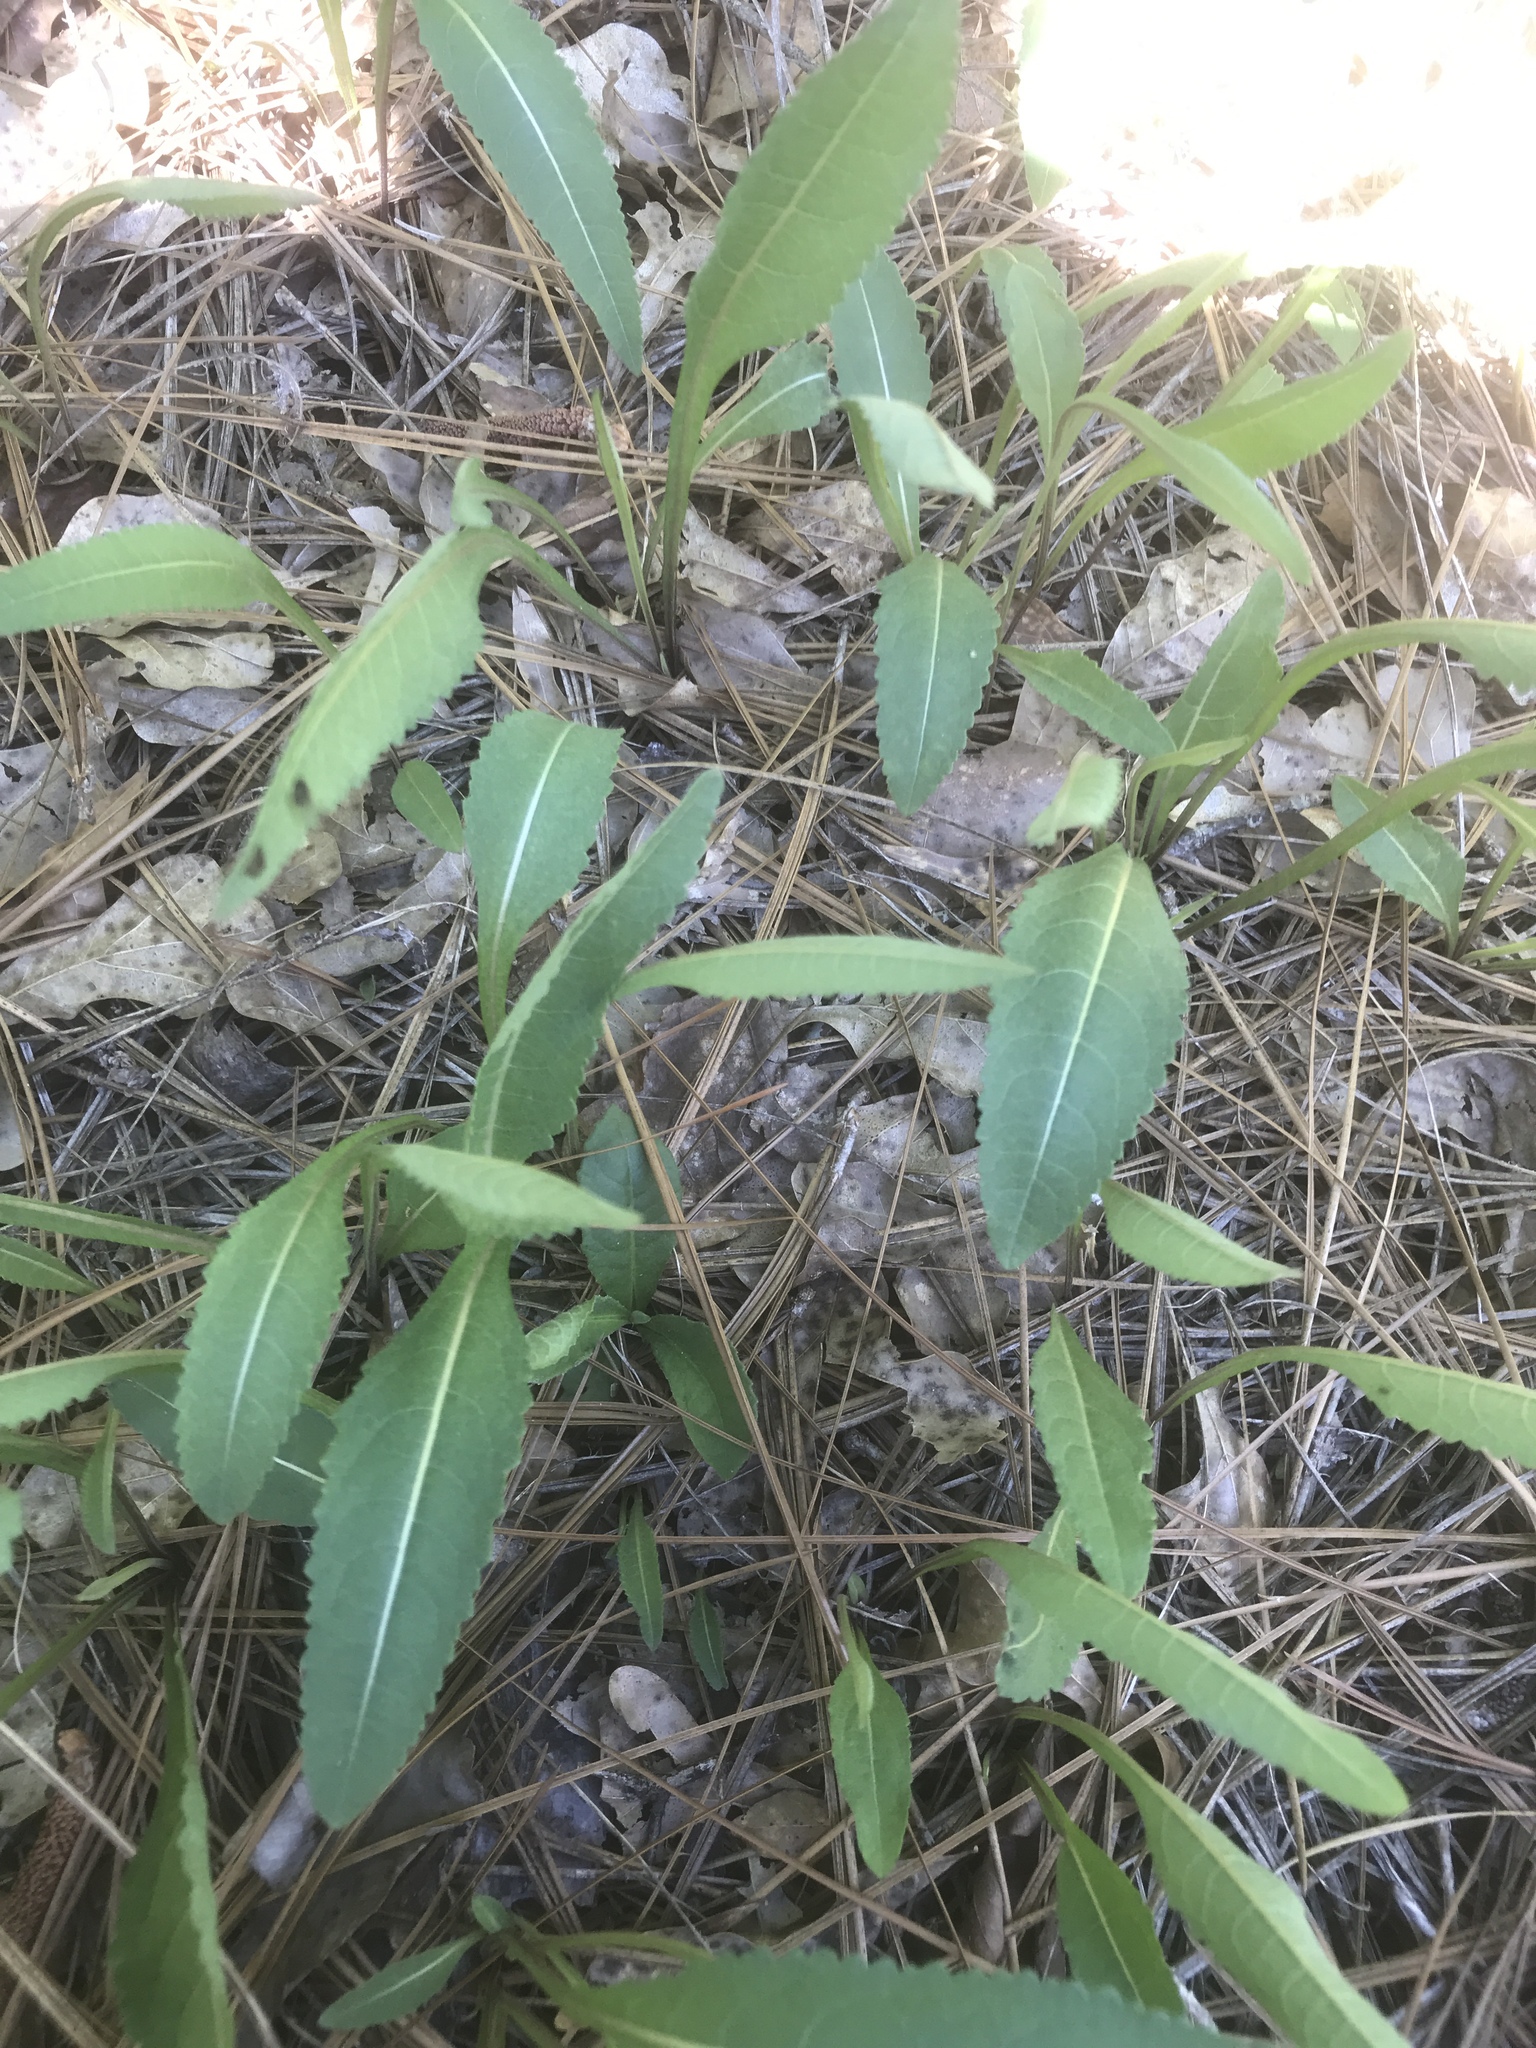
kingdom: Plantae
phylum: Tracheophyta
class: Magnoliopsida
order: Asterales
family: Asteraceae
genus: Parthenium
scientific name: Parthenium integrifolium
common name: American feverfew
